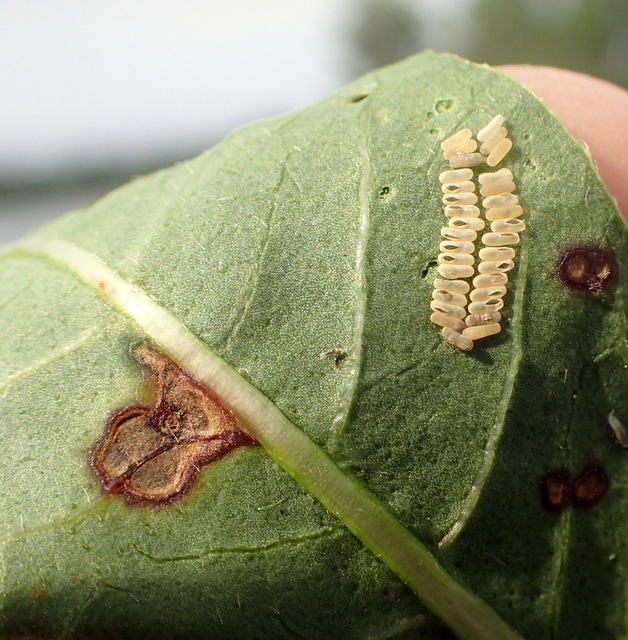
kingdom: Animalia
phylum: Arthropoda
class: Insecta
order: Coleoptera
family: Chrysomelidae
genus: Agasicles
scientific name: Agasicles hygrophila
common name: Alligatorweed flea beetle
